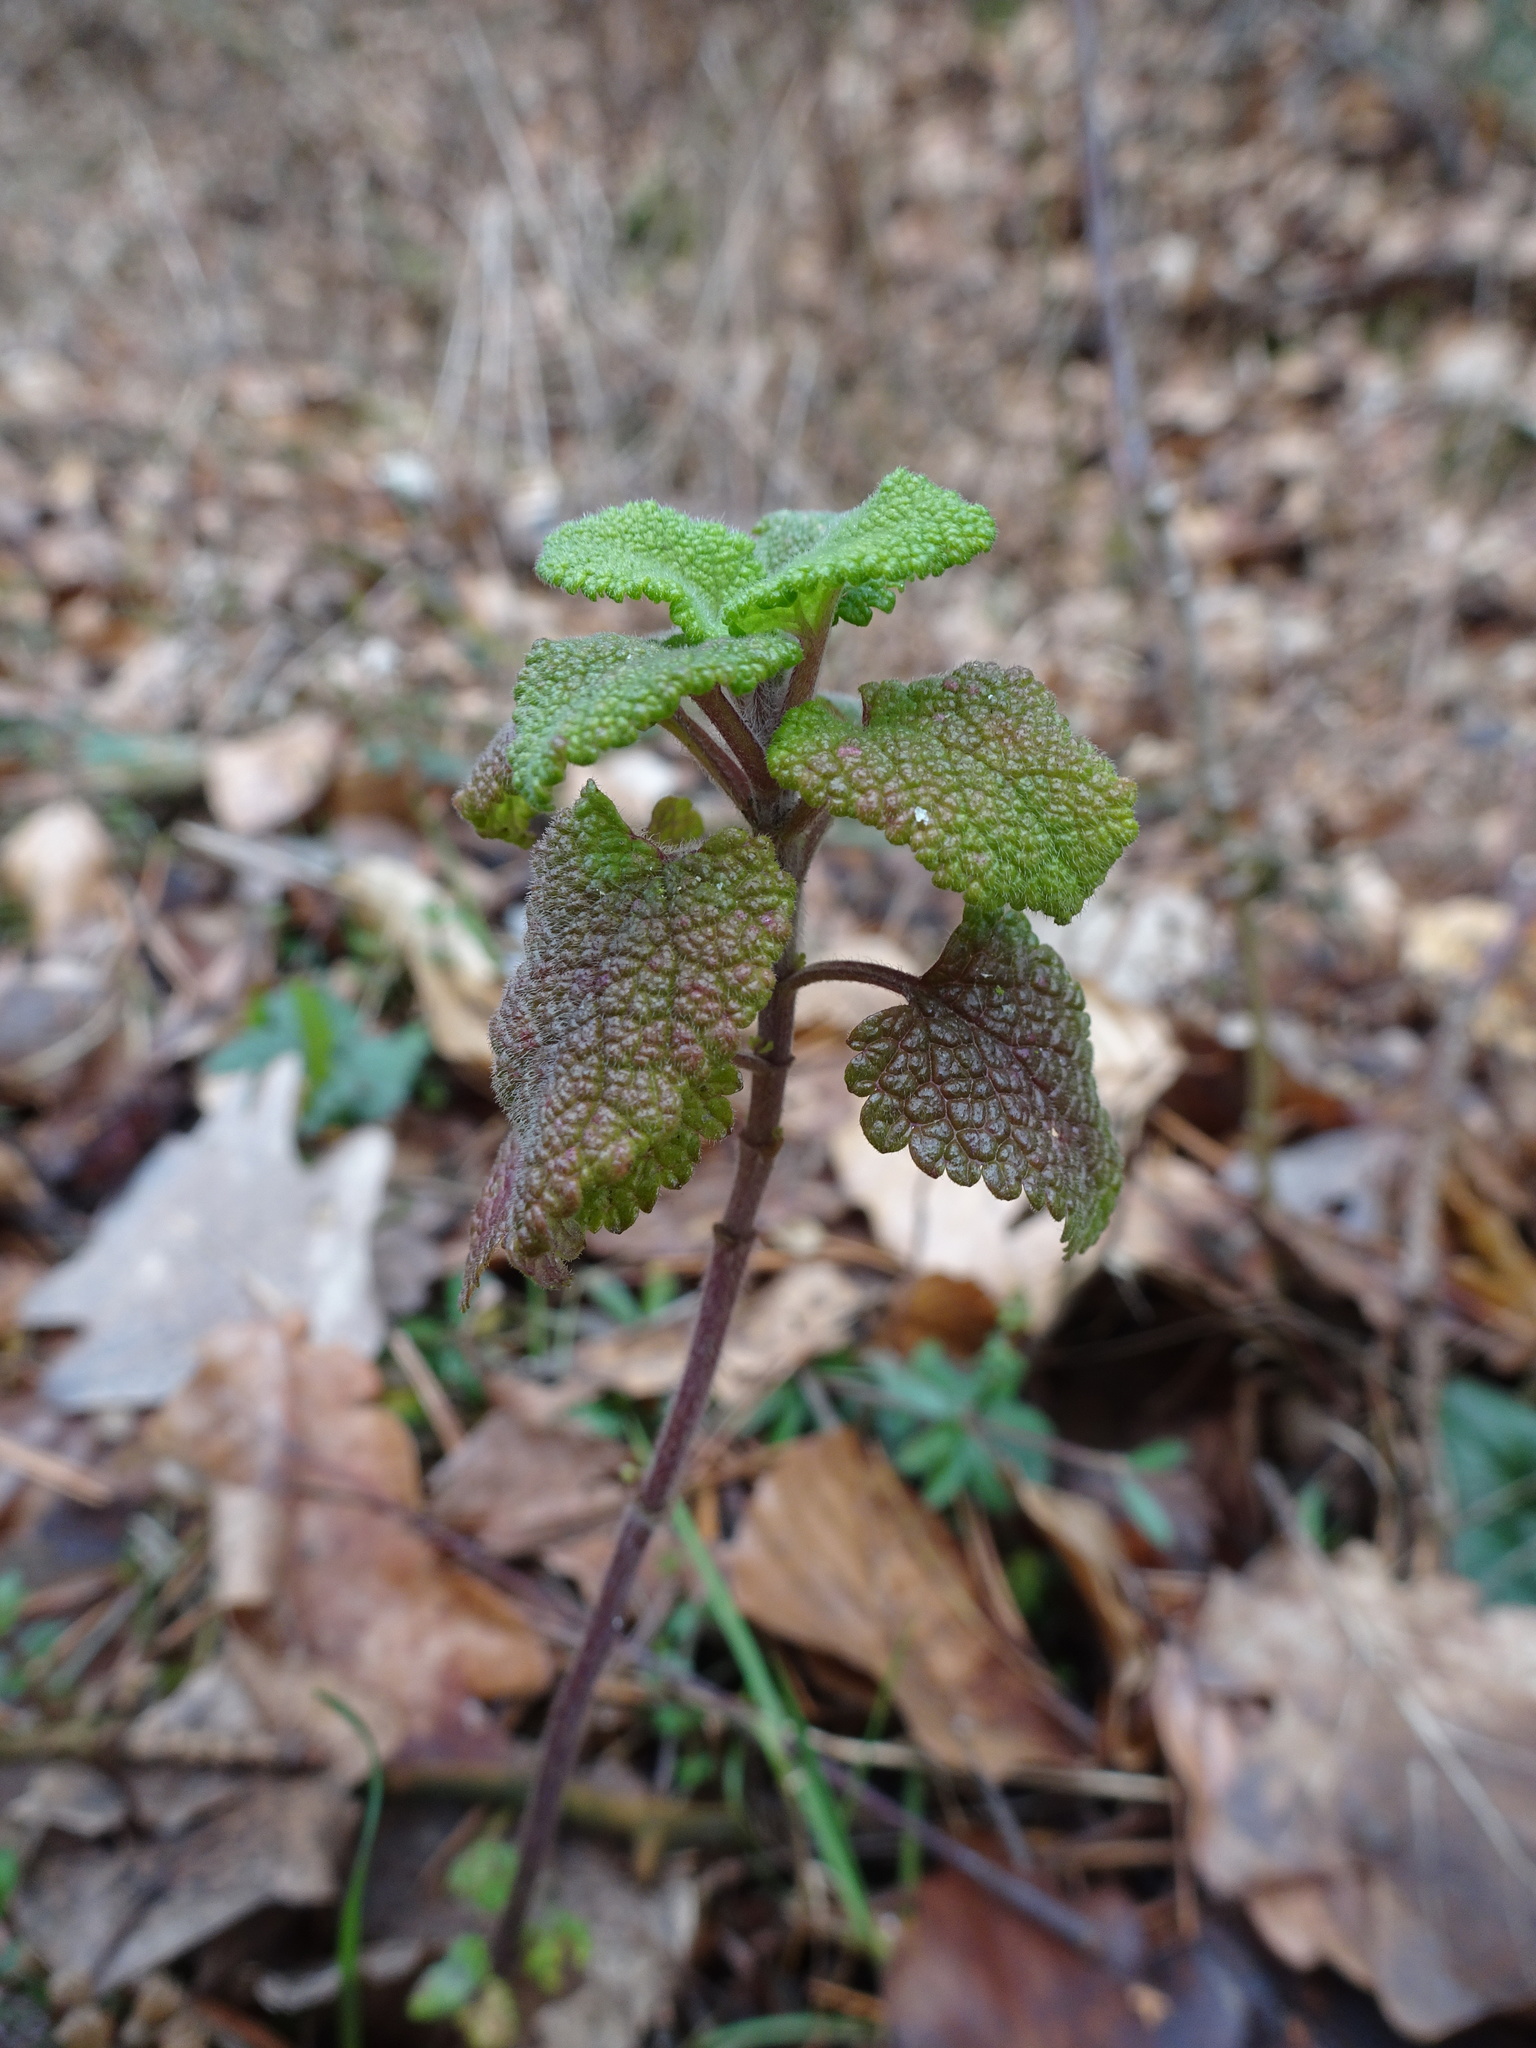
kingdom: Plantae
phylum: Tracheophyta
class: Magnoliopsida
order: Lamiales
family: Lamiaceae
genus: Teucrium
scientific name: Teucrium scorodonia
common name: Woodland germander
